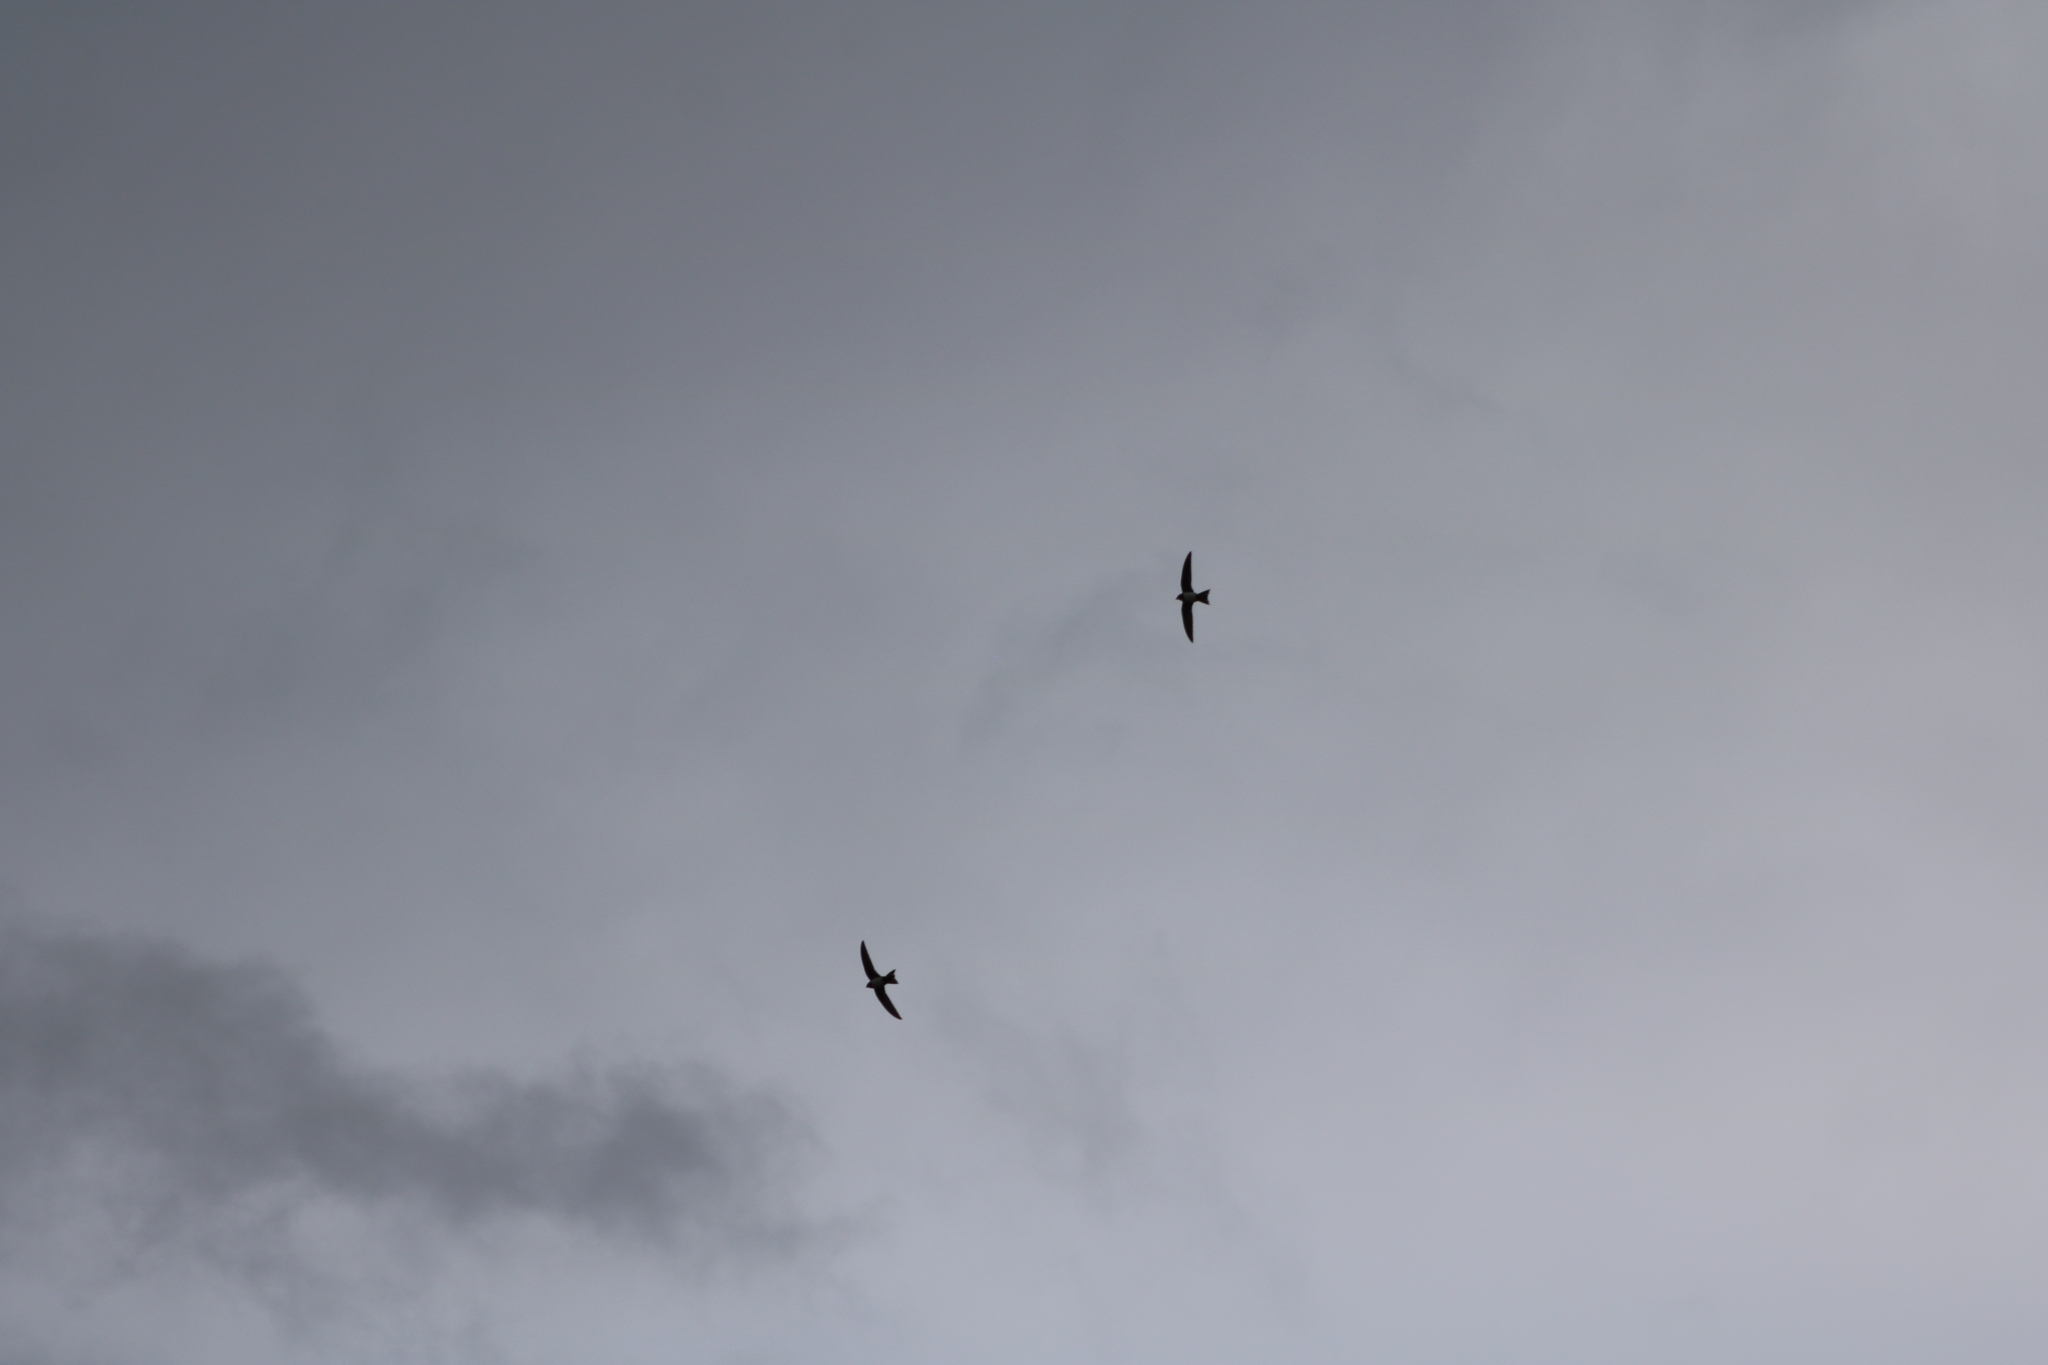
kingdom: Animalia
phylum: Chordata
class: Aves
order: Apodiformes
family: Apodidae
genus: Tachymarptis
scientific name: Tachymarptis melba
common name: Alpine swift
